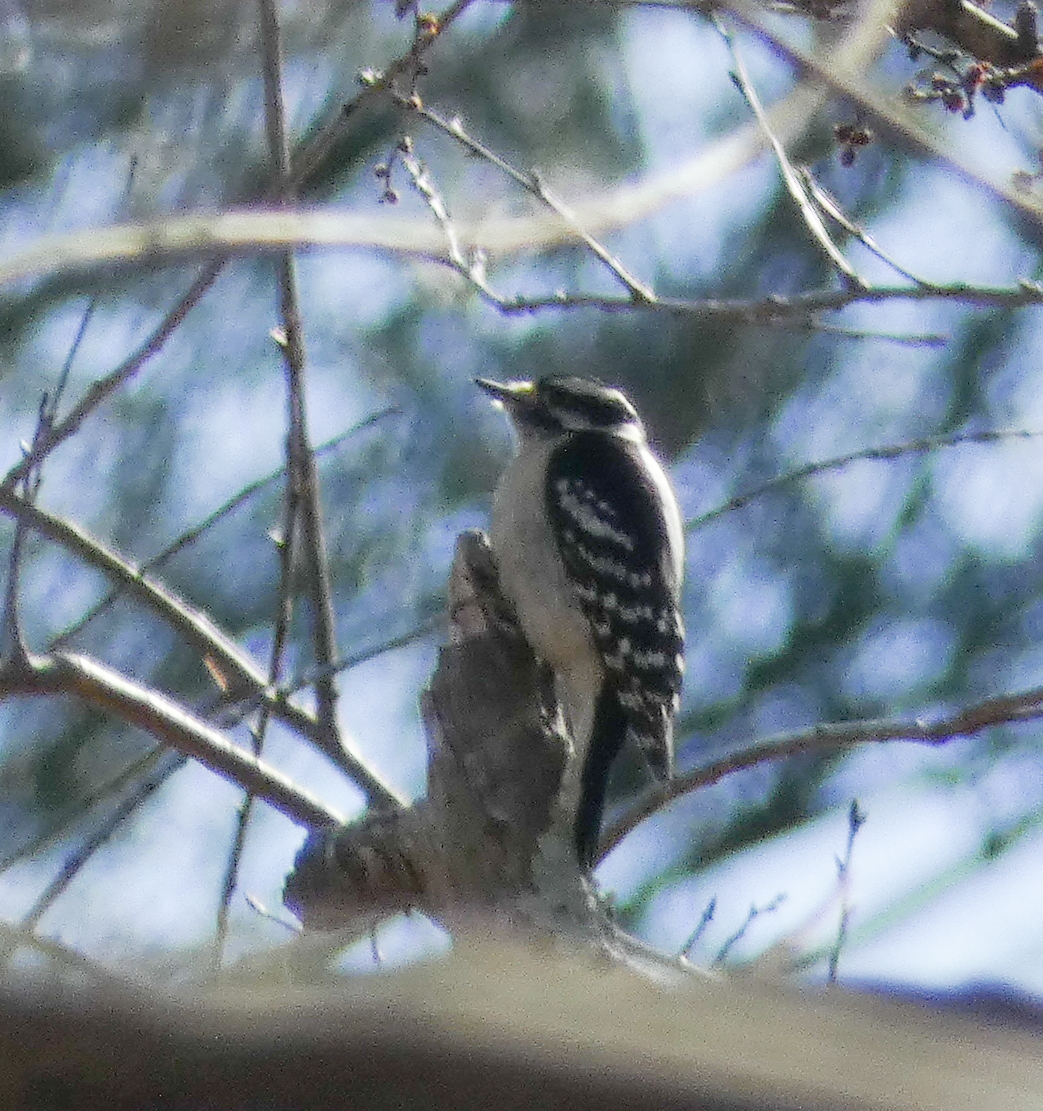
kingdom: Animalia
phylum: Chordata
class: Aves
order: Piciformes
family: Picidae
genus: Dryobates
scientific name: Dryobates pubescens
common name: Downy woodpecker
